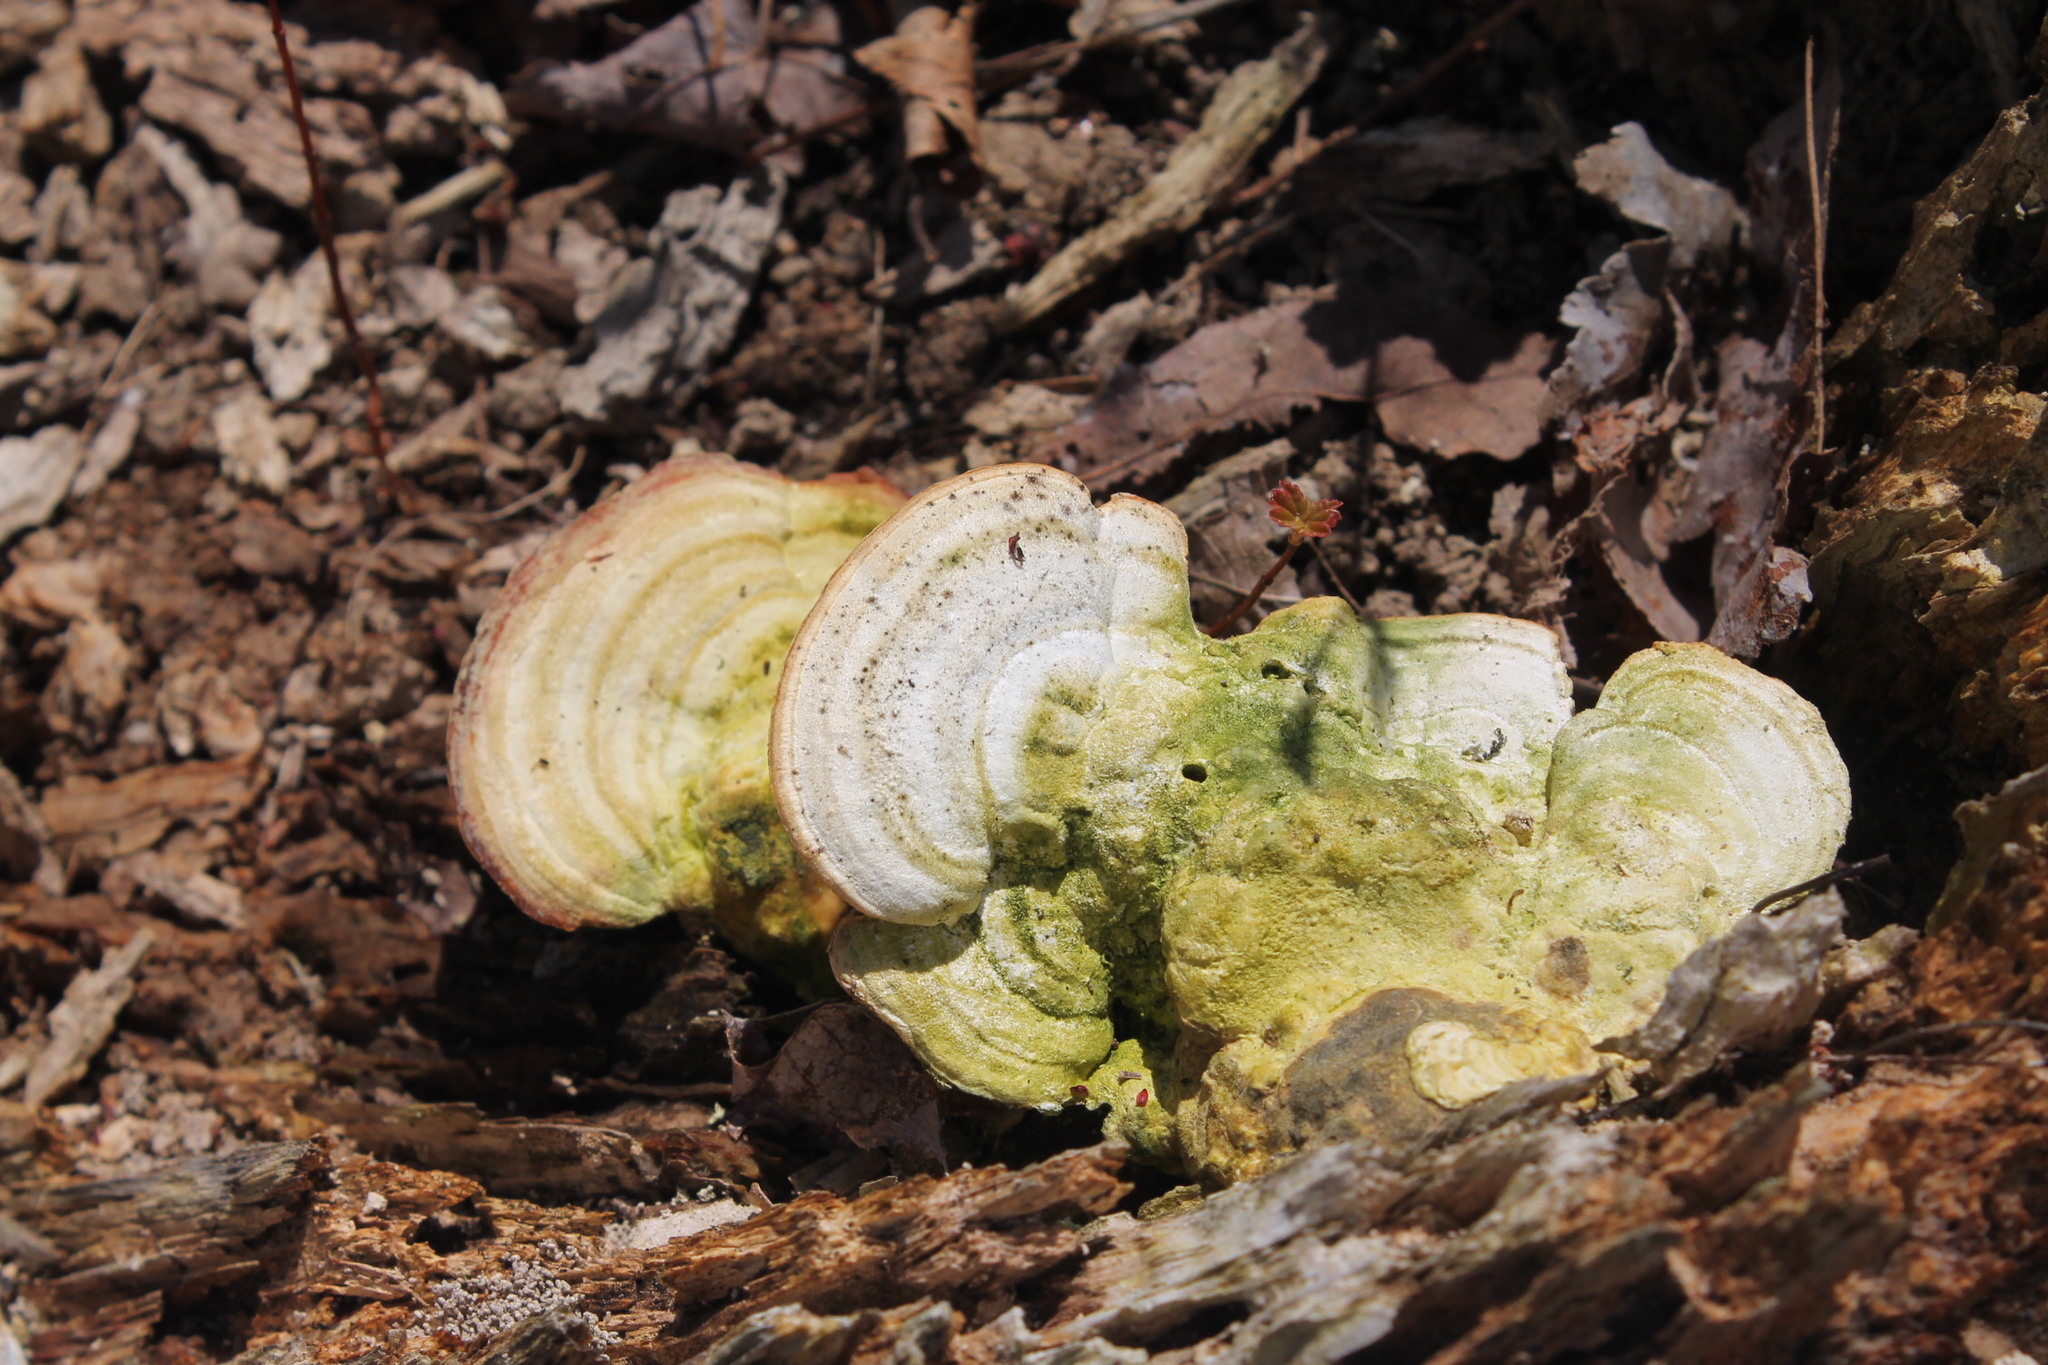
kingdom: Fungi
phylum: Basidiomycota
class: Agaricomycetes
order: Polyporales
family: Polyporaceae
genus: Trametes
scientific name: Trametes gibbosa
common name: Lumpy bracket
